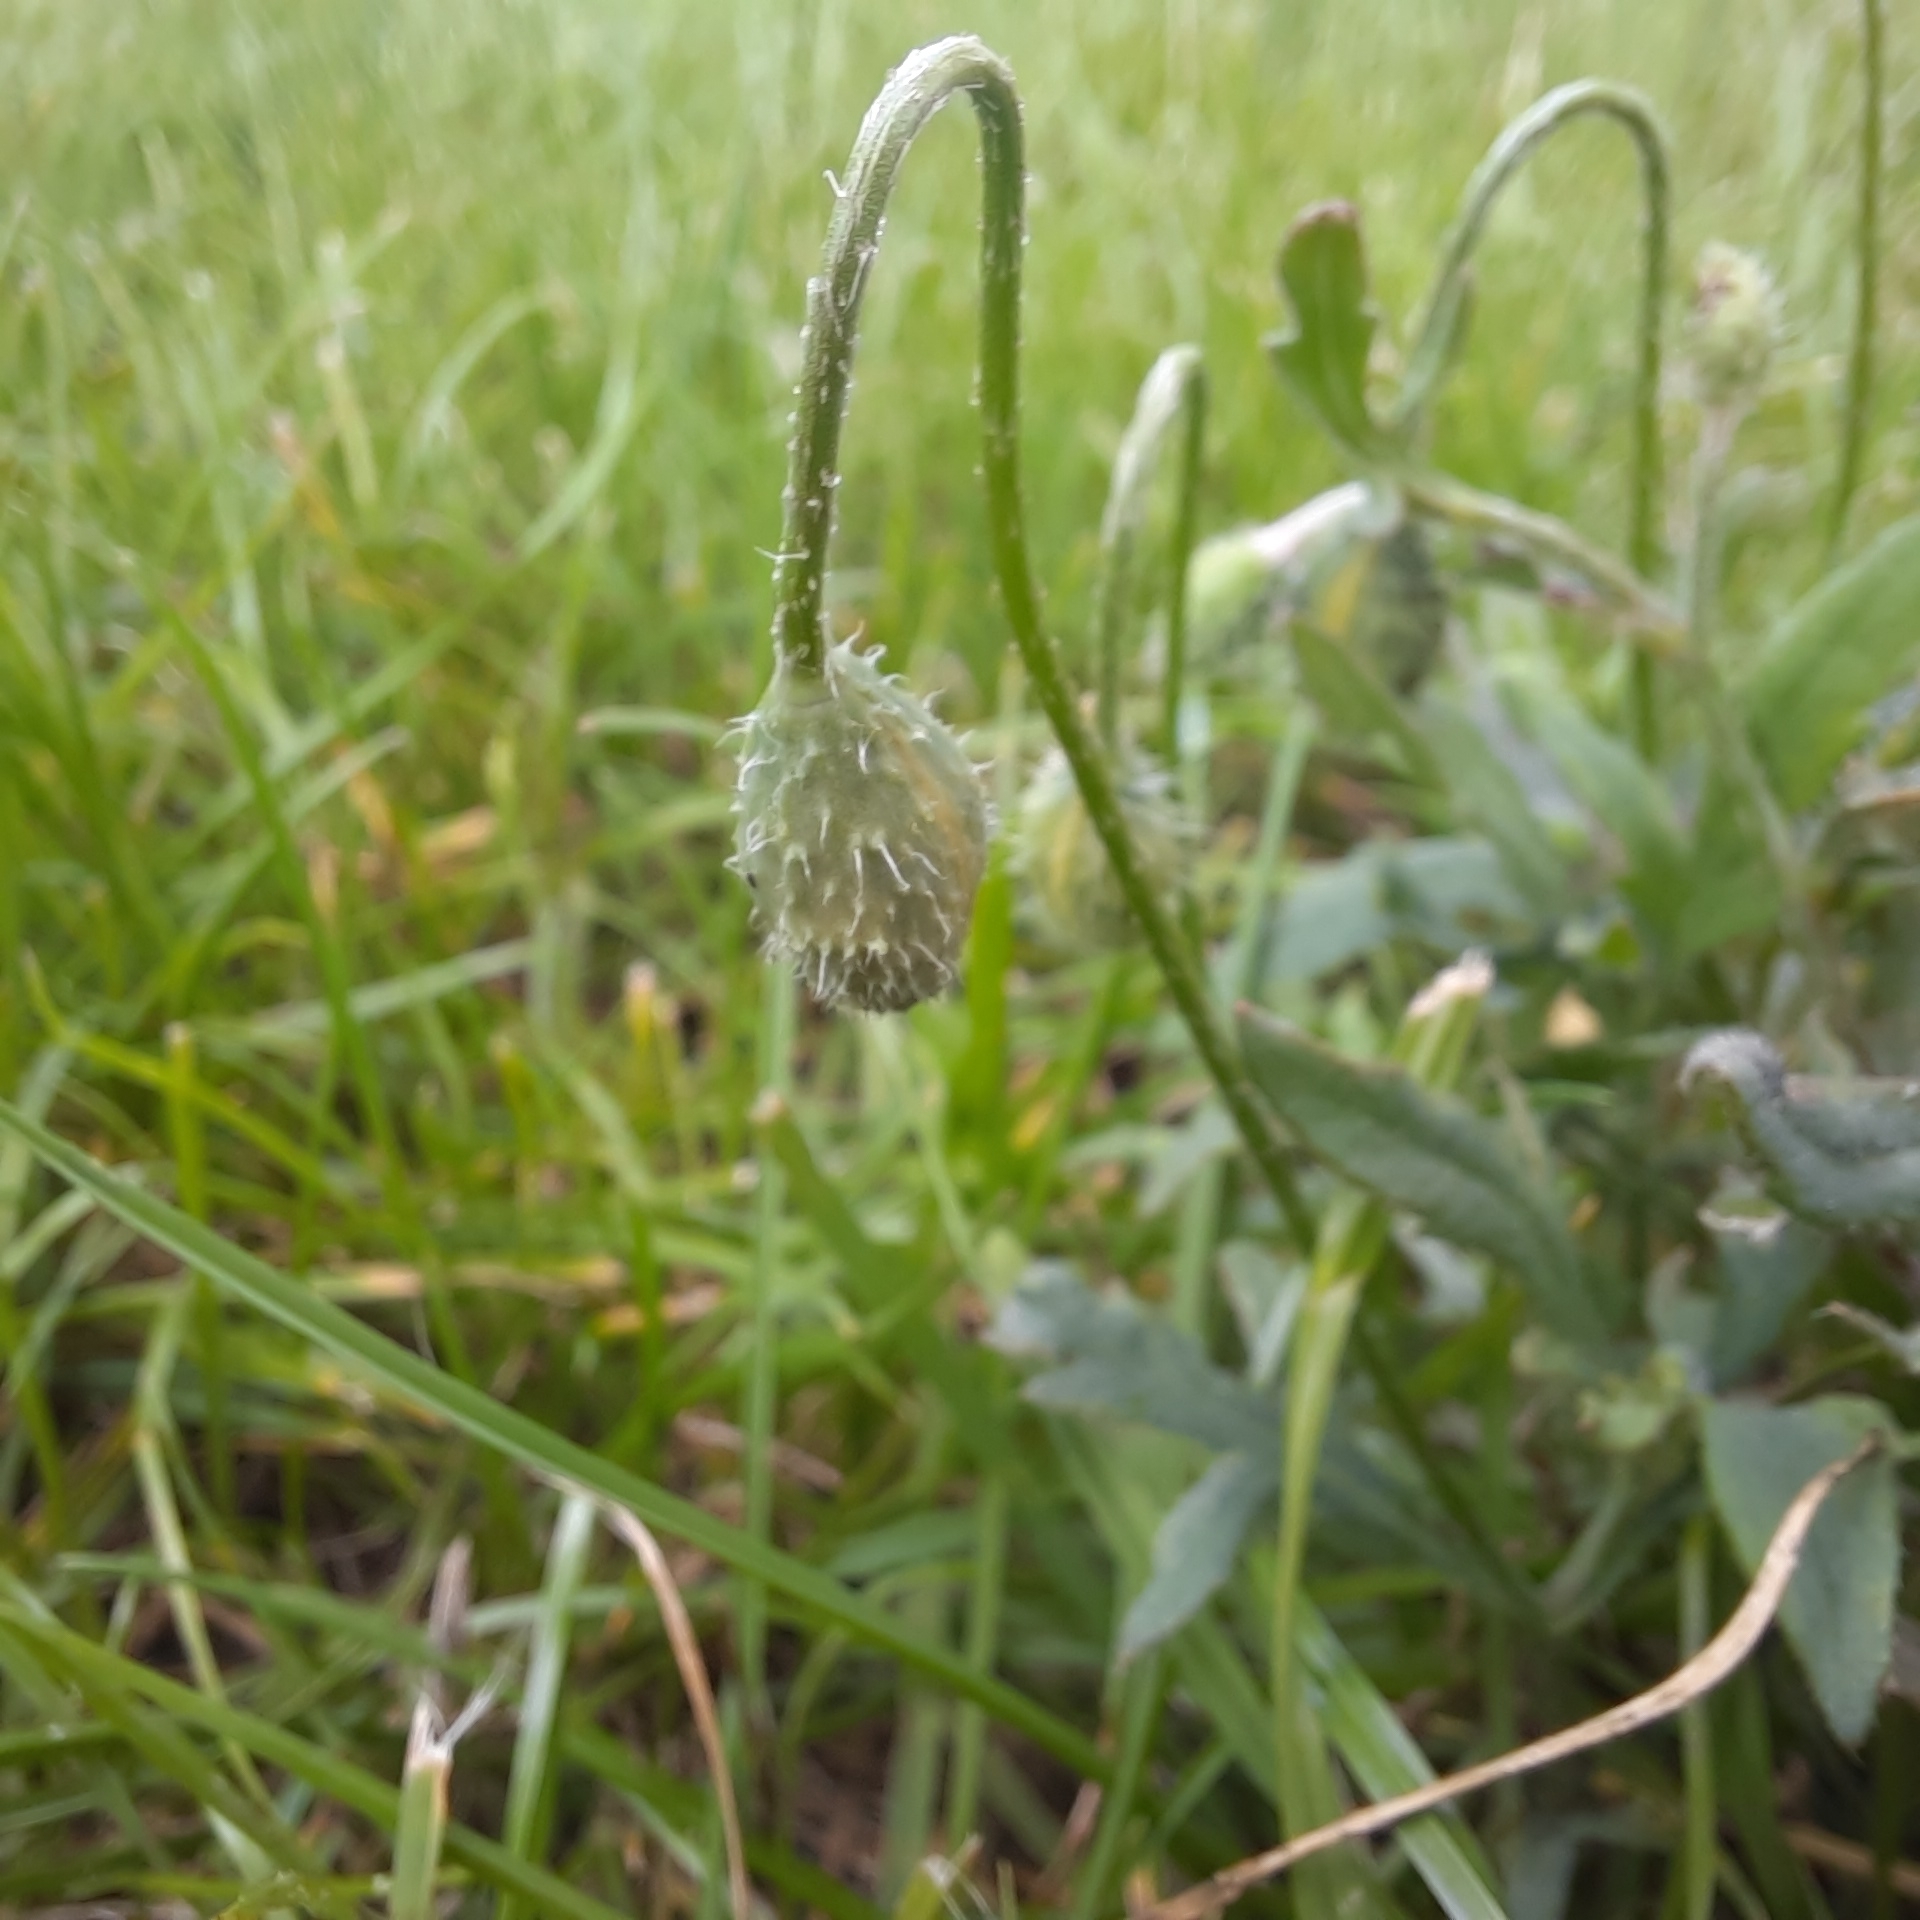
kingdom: Plantae
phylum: Tracheophyta
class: Magnoliopsida
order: Ranunculales
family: Papaveraceae
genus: Papaver
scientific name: Papaver dubium
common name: Long-headed poppy
